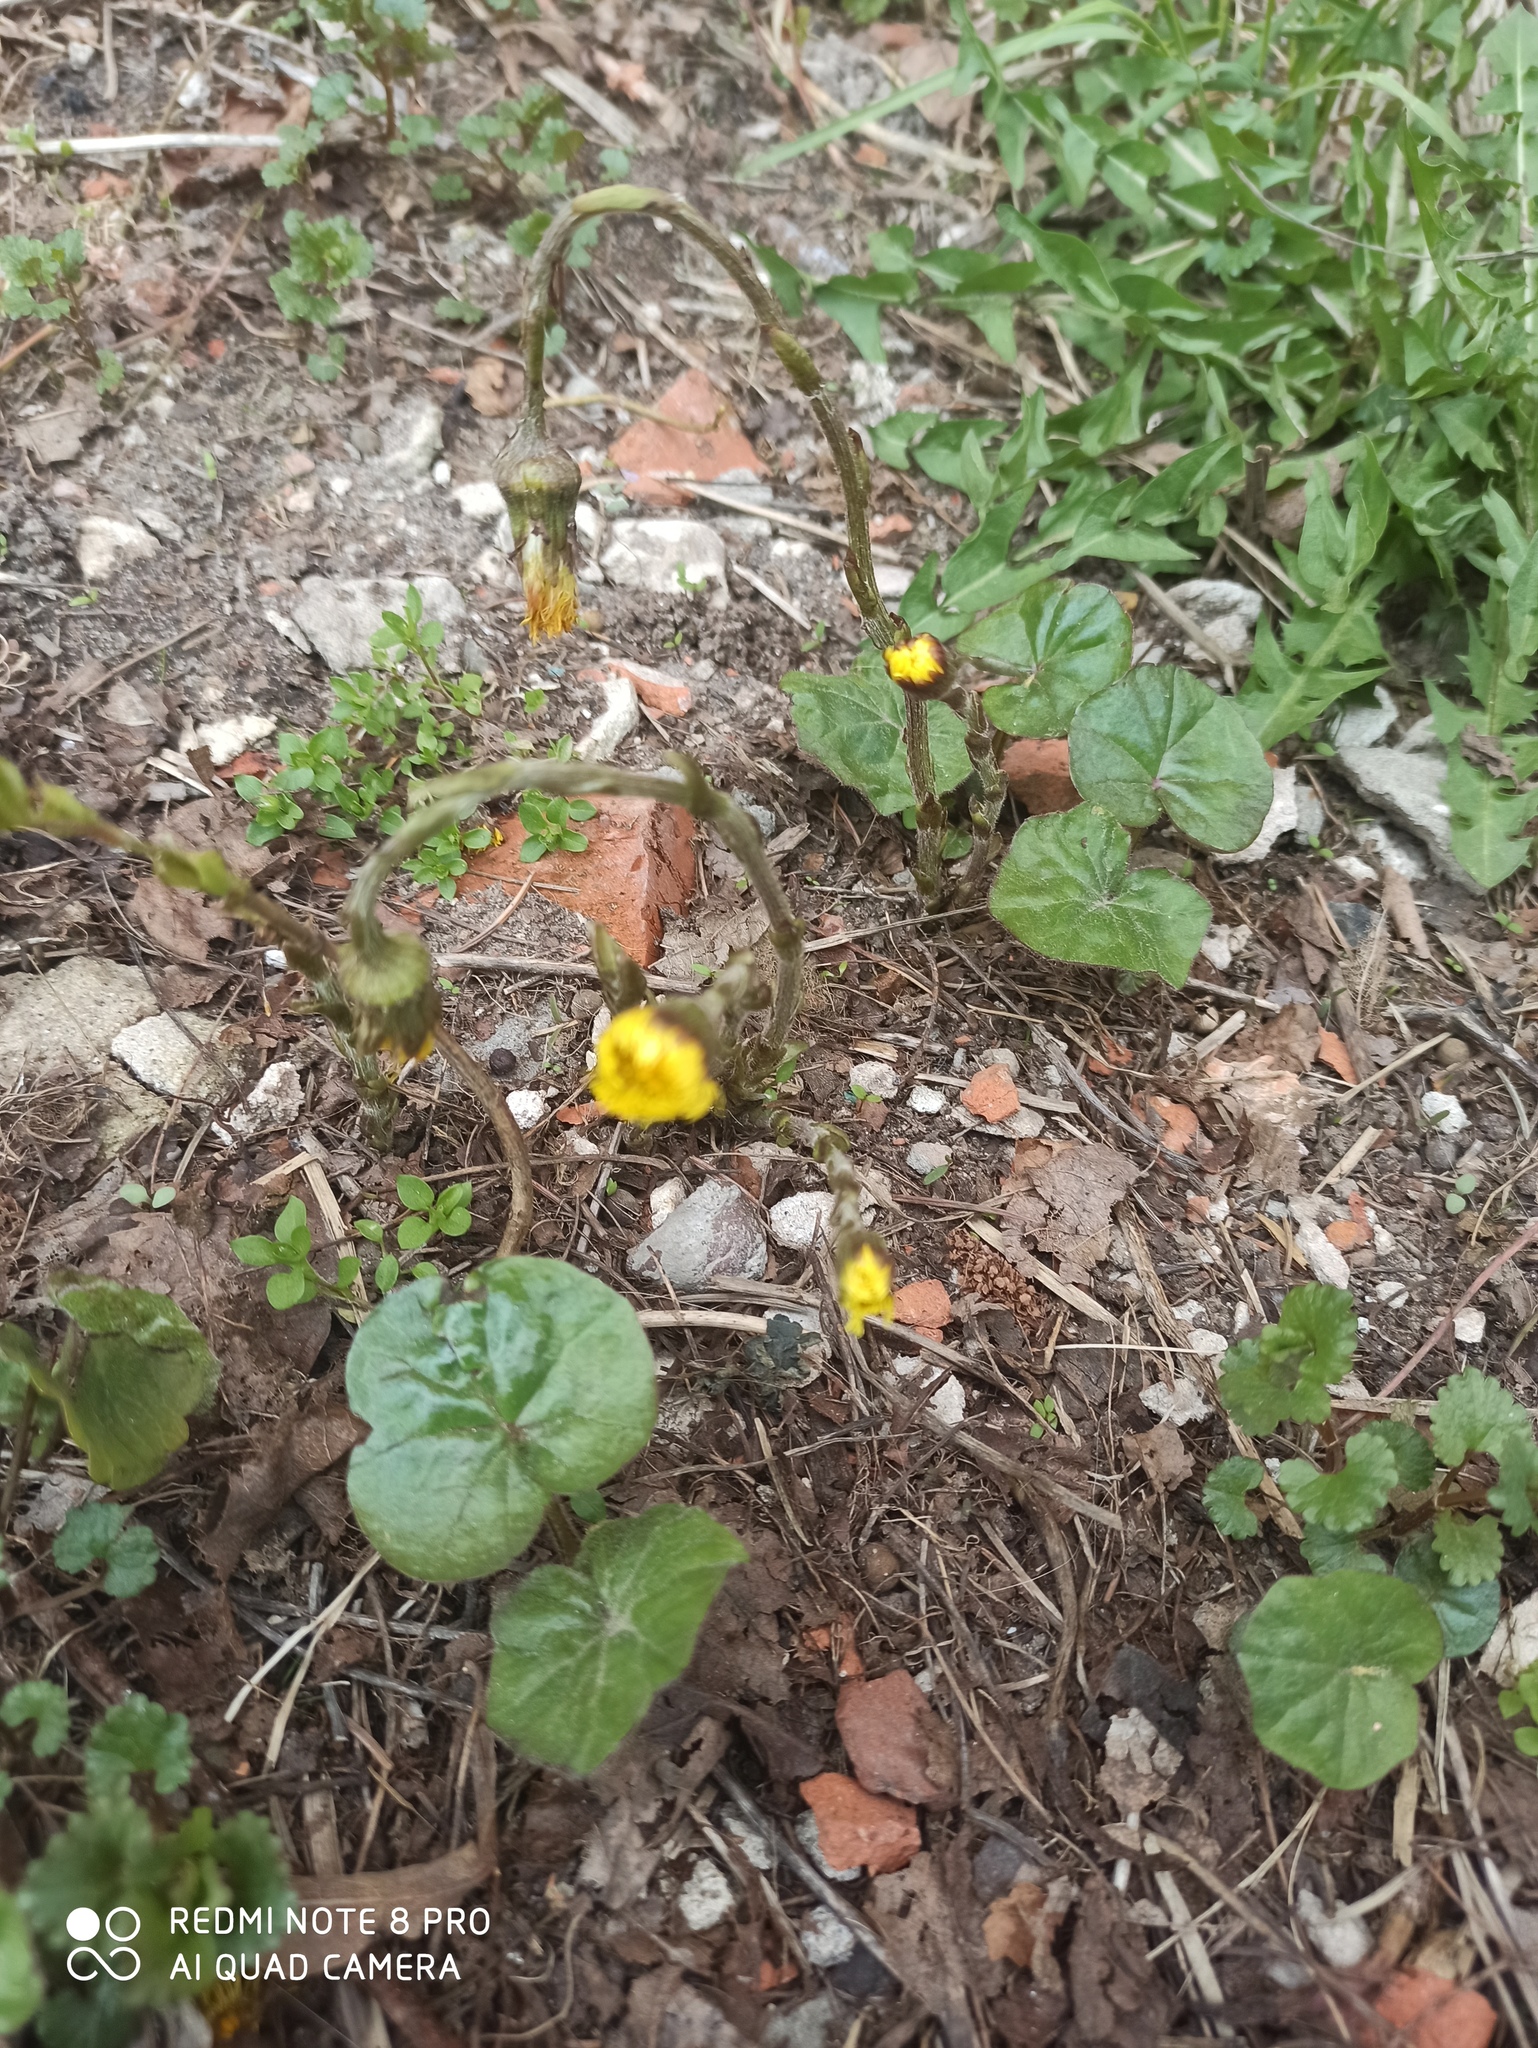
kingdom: Plantae
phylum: Tracheophyta
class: Magnoliopsida
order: Asterales
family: Asteraceae
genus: Tussilago
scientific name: Tussilago farfara
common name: Coltsfoot
